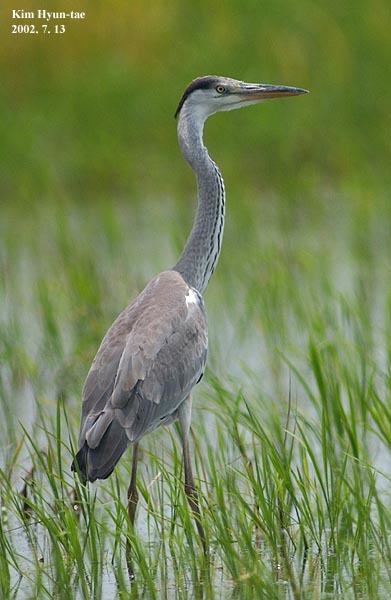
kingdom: Animalia
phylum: Chordata
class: Aves
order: Pelecaniformes
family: Ardeidae
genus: Ardea
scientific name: Ardea cinerea
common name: Grey heron
